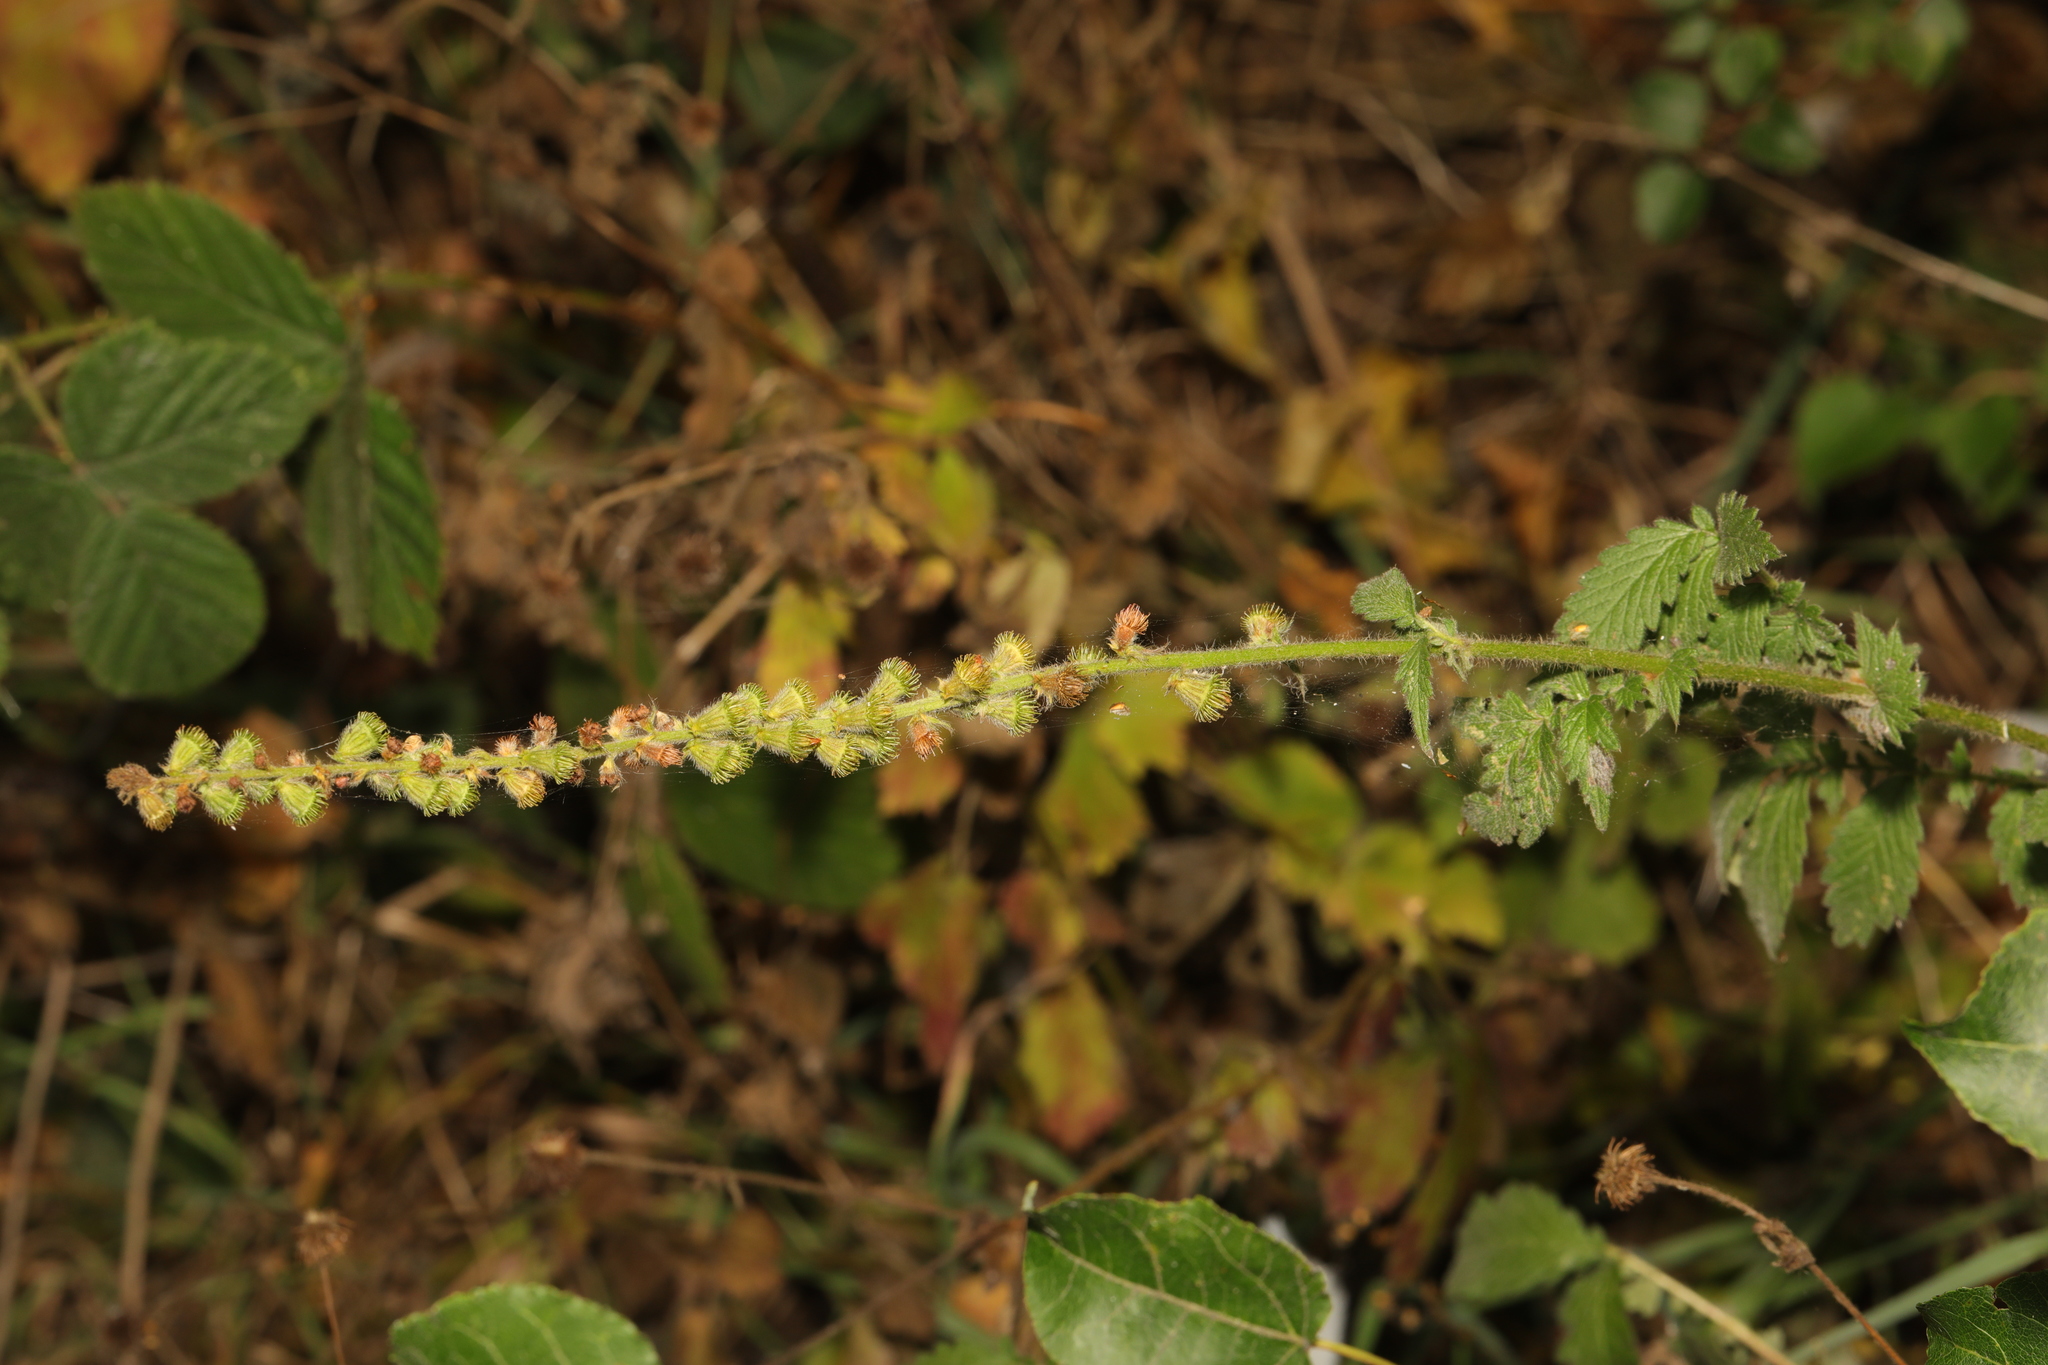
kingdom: Plantae
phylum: Tracheophyta
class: Magnoliopsida
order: Rosales
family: Rosaceae
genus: Agrimonia
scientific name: Agrimonia eupatoria
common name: Agrimony
